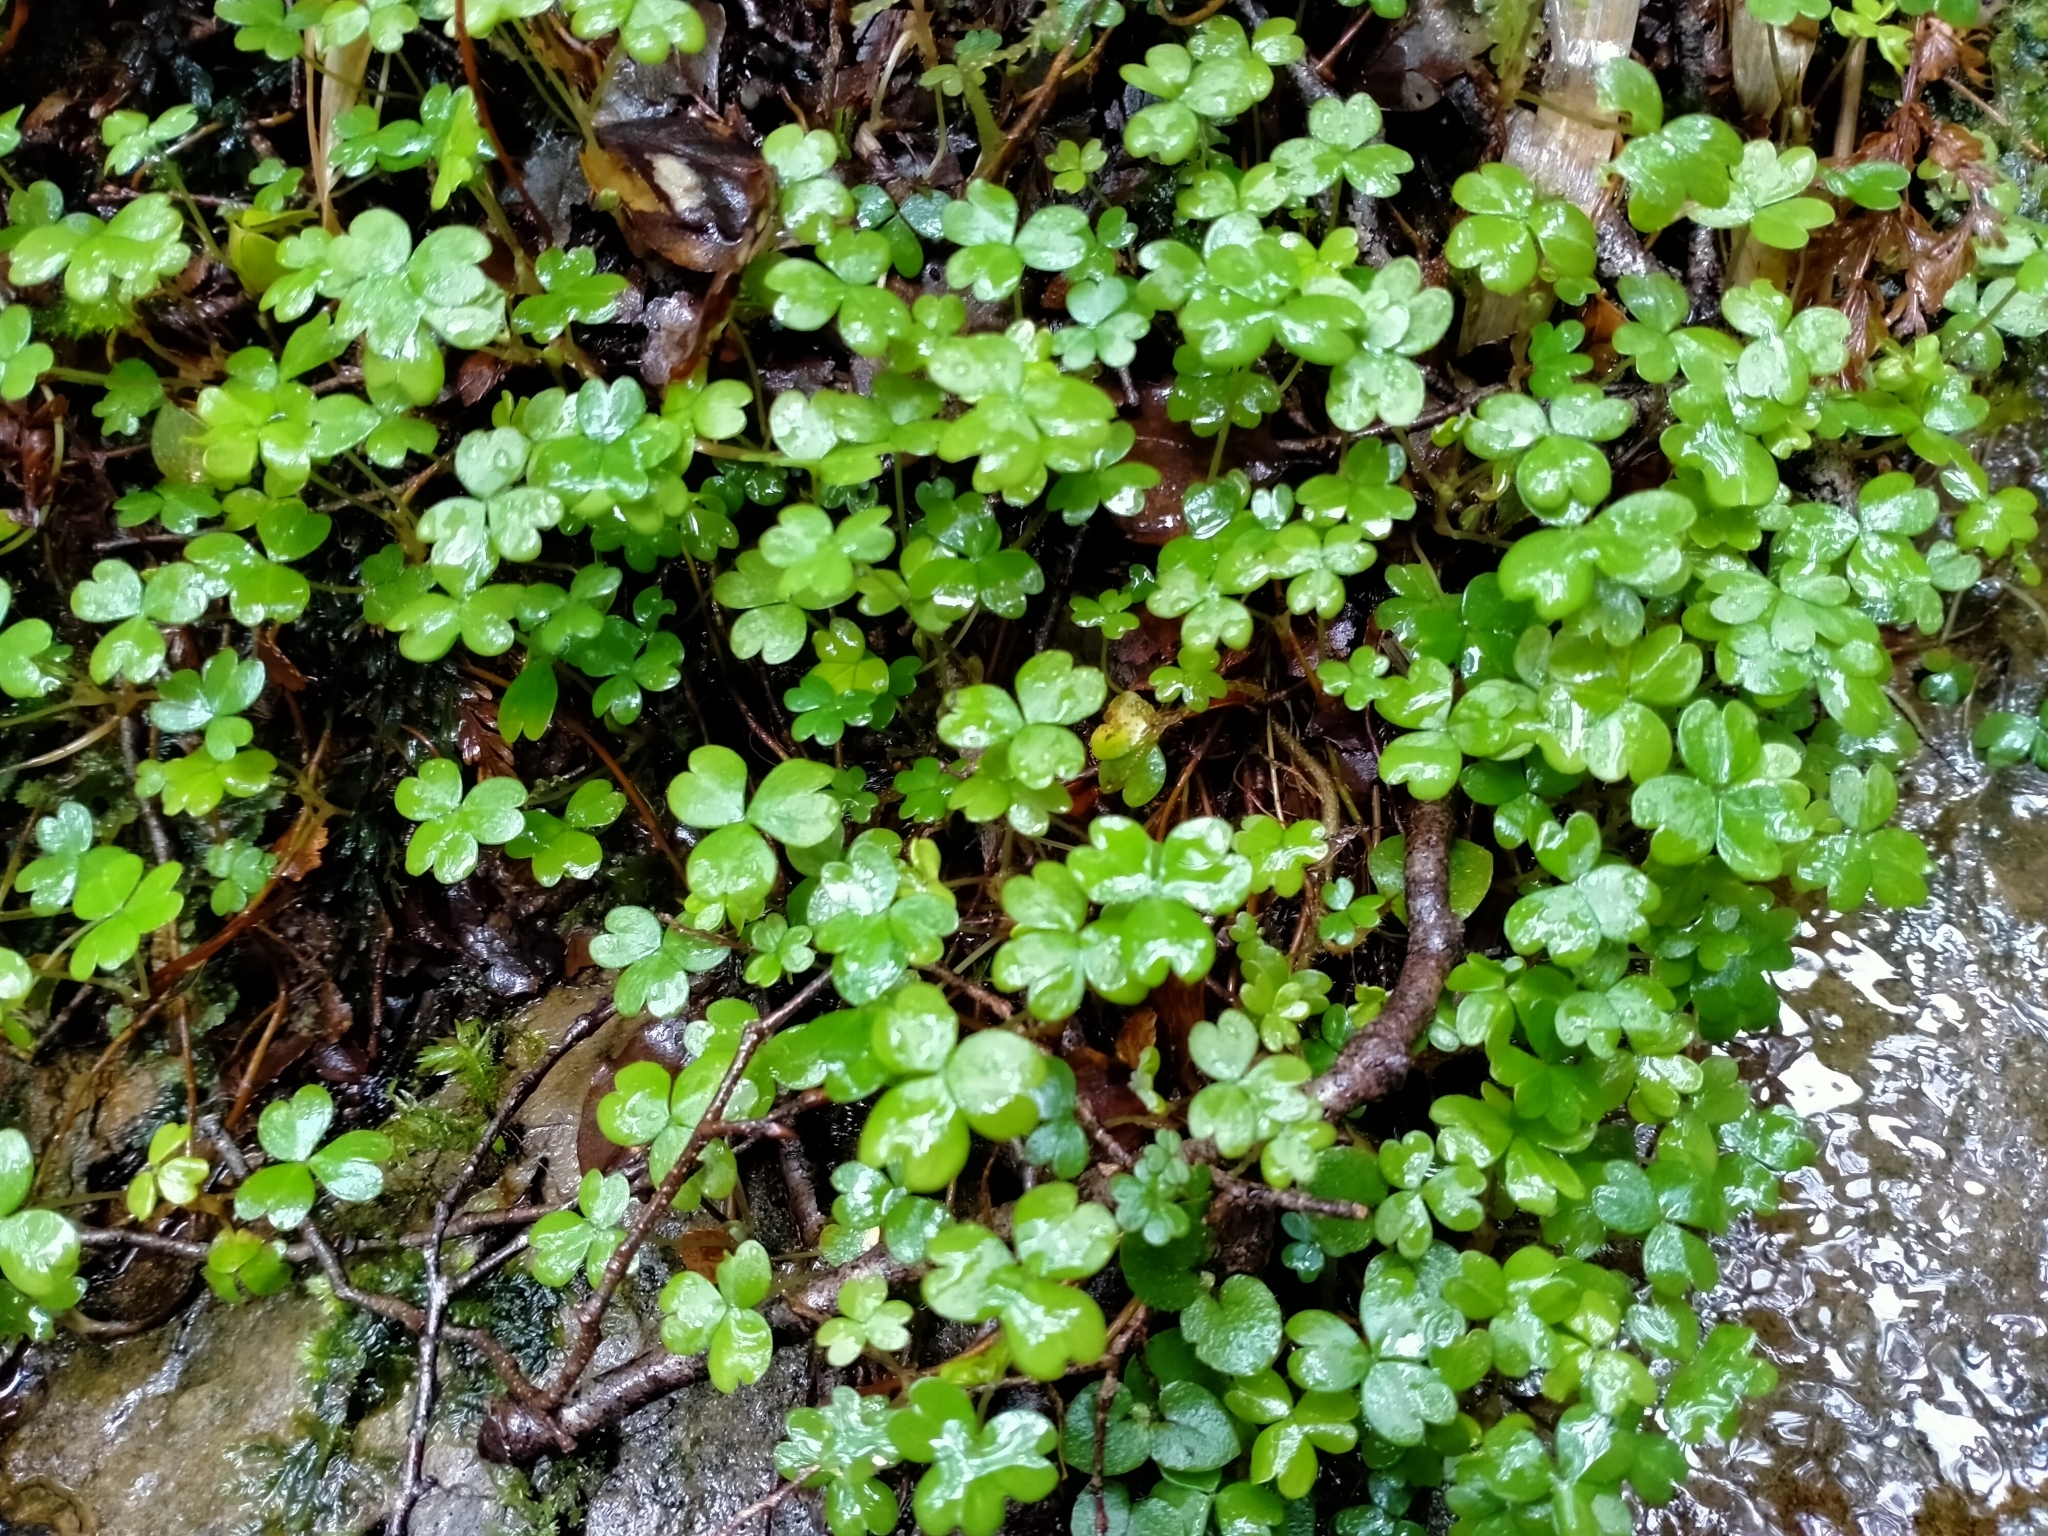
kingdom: Plantae
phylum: Tracheophyta
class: Magnoliopsida
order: Oxalidales
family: Oxalidaceae
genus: Oxalis
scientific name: Oxalis magellanica
